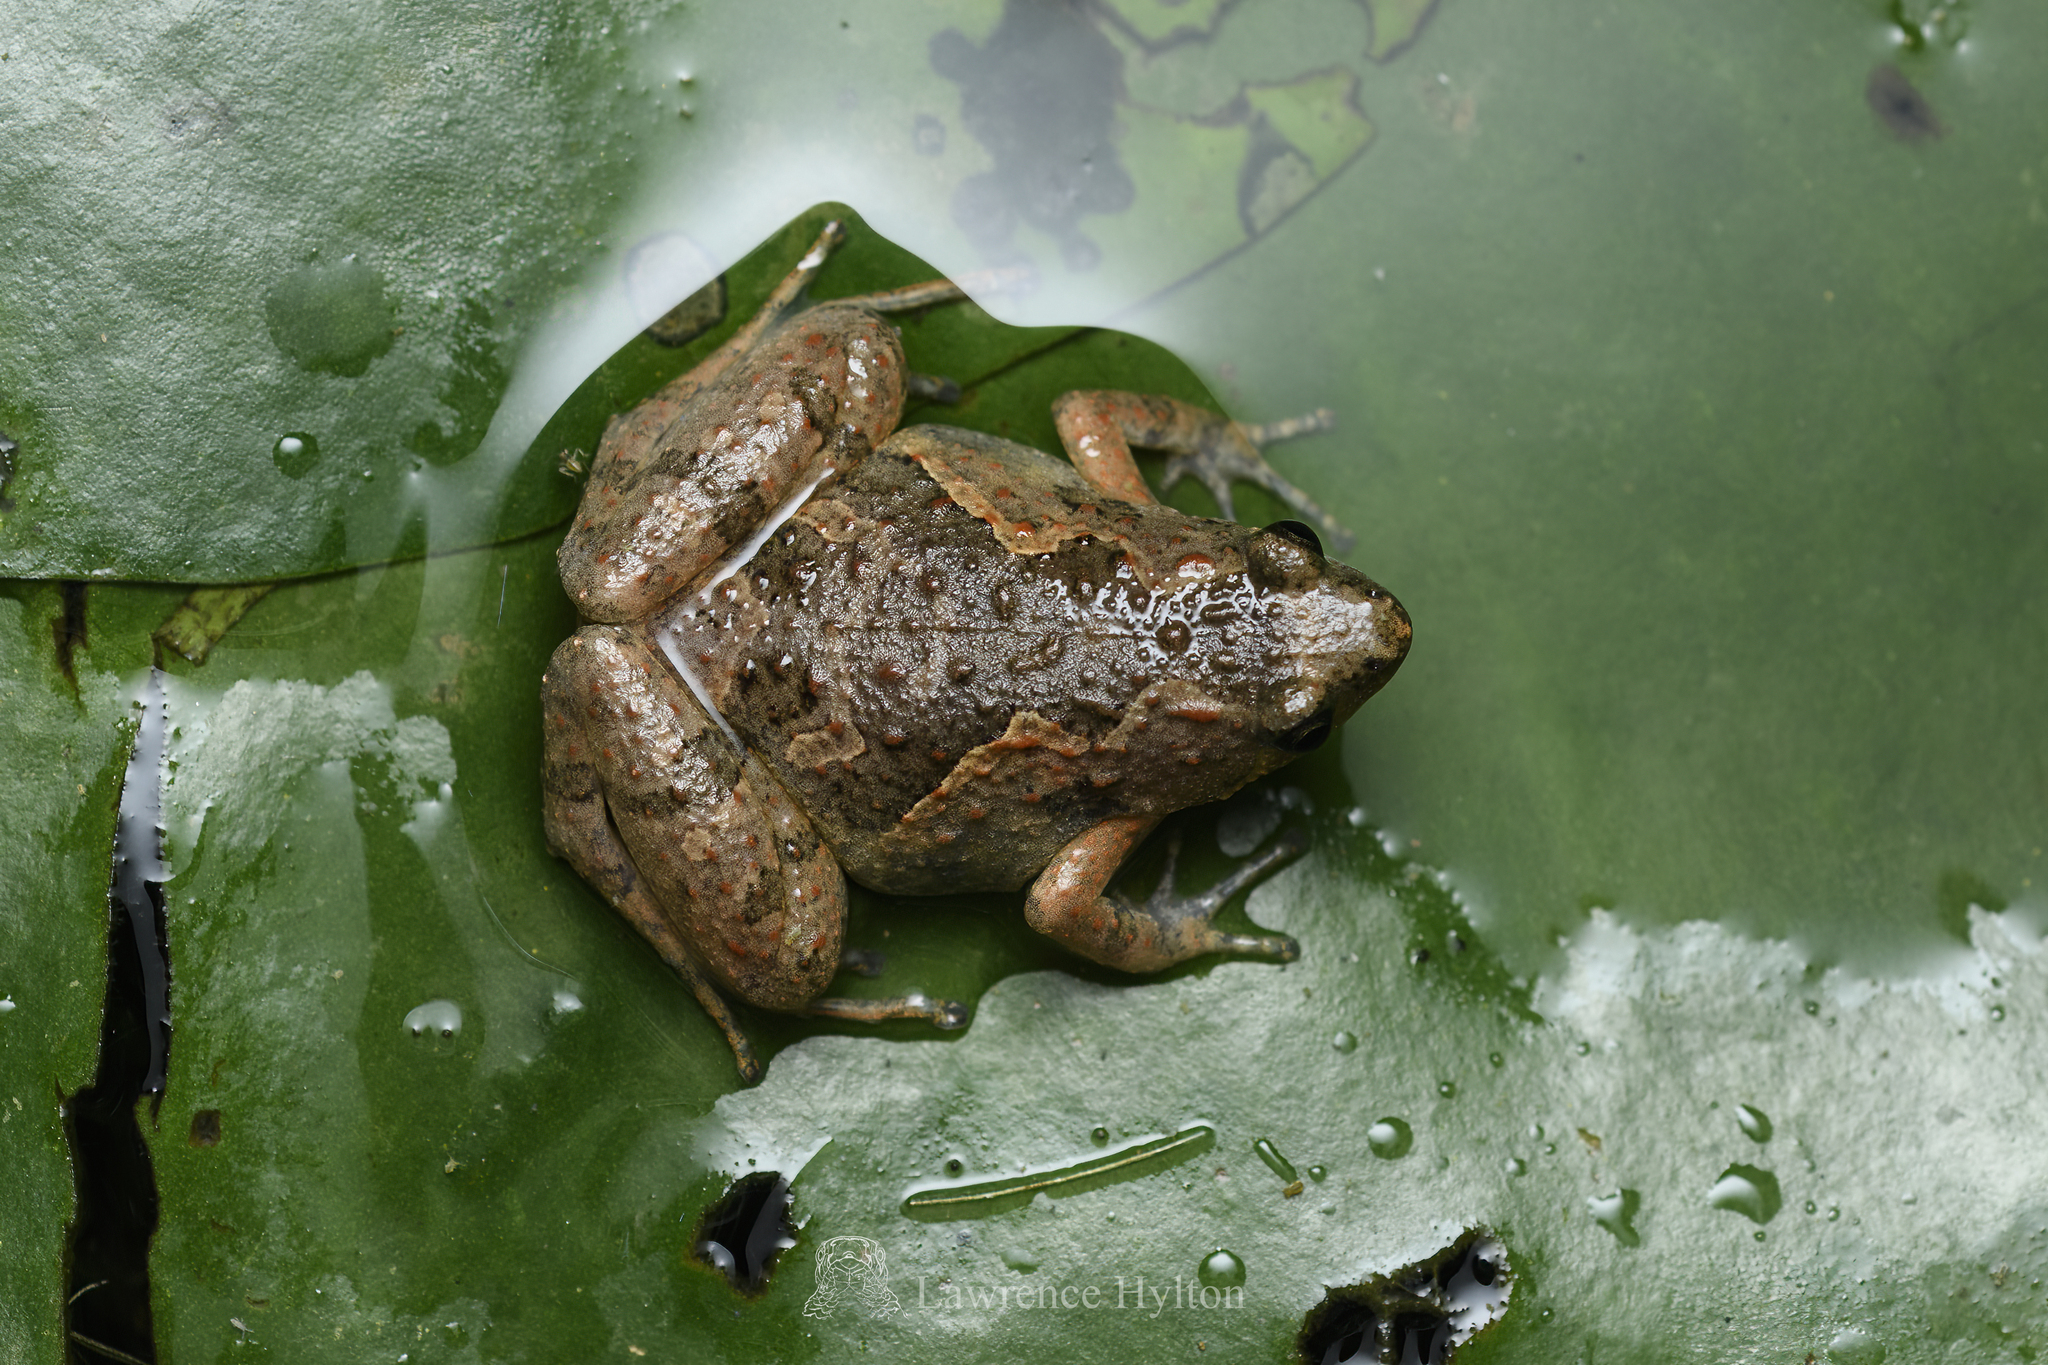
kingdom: Animalia
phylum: Chordata
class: Amphibia
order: Anura
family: Microhylidae
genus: Microhyla
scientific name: Microhyla butleri
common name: Butler’s rice frog,painted chorus frog,tubercled pygmy frog
